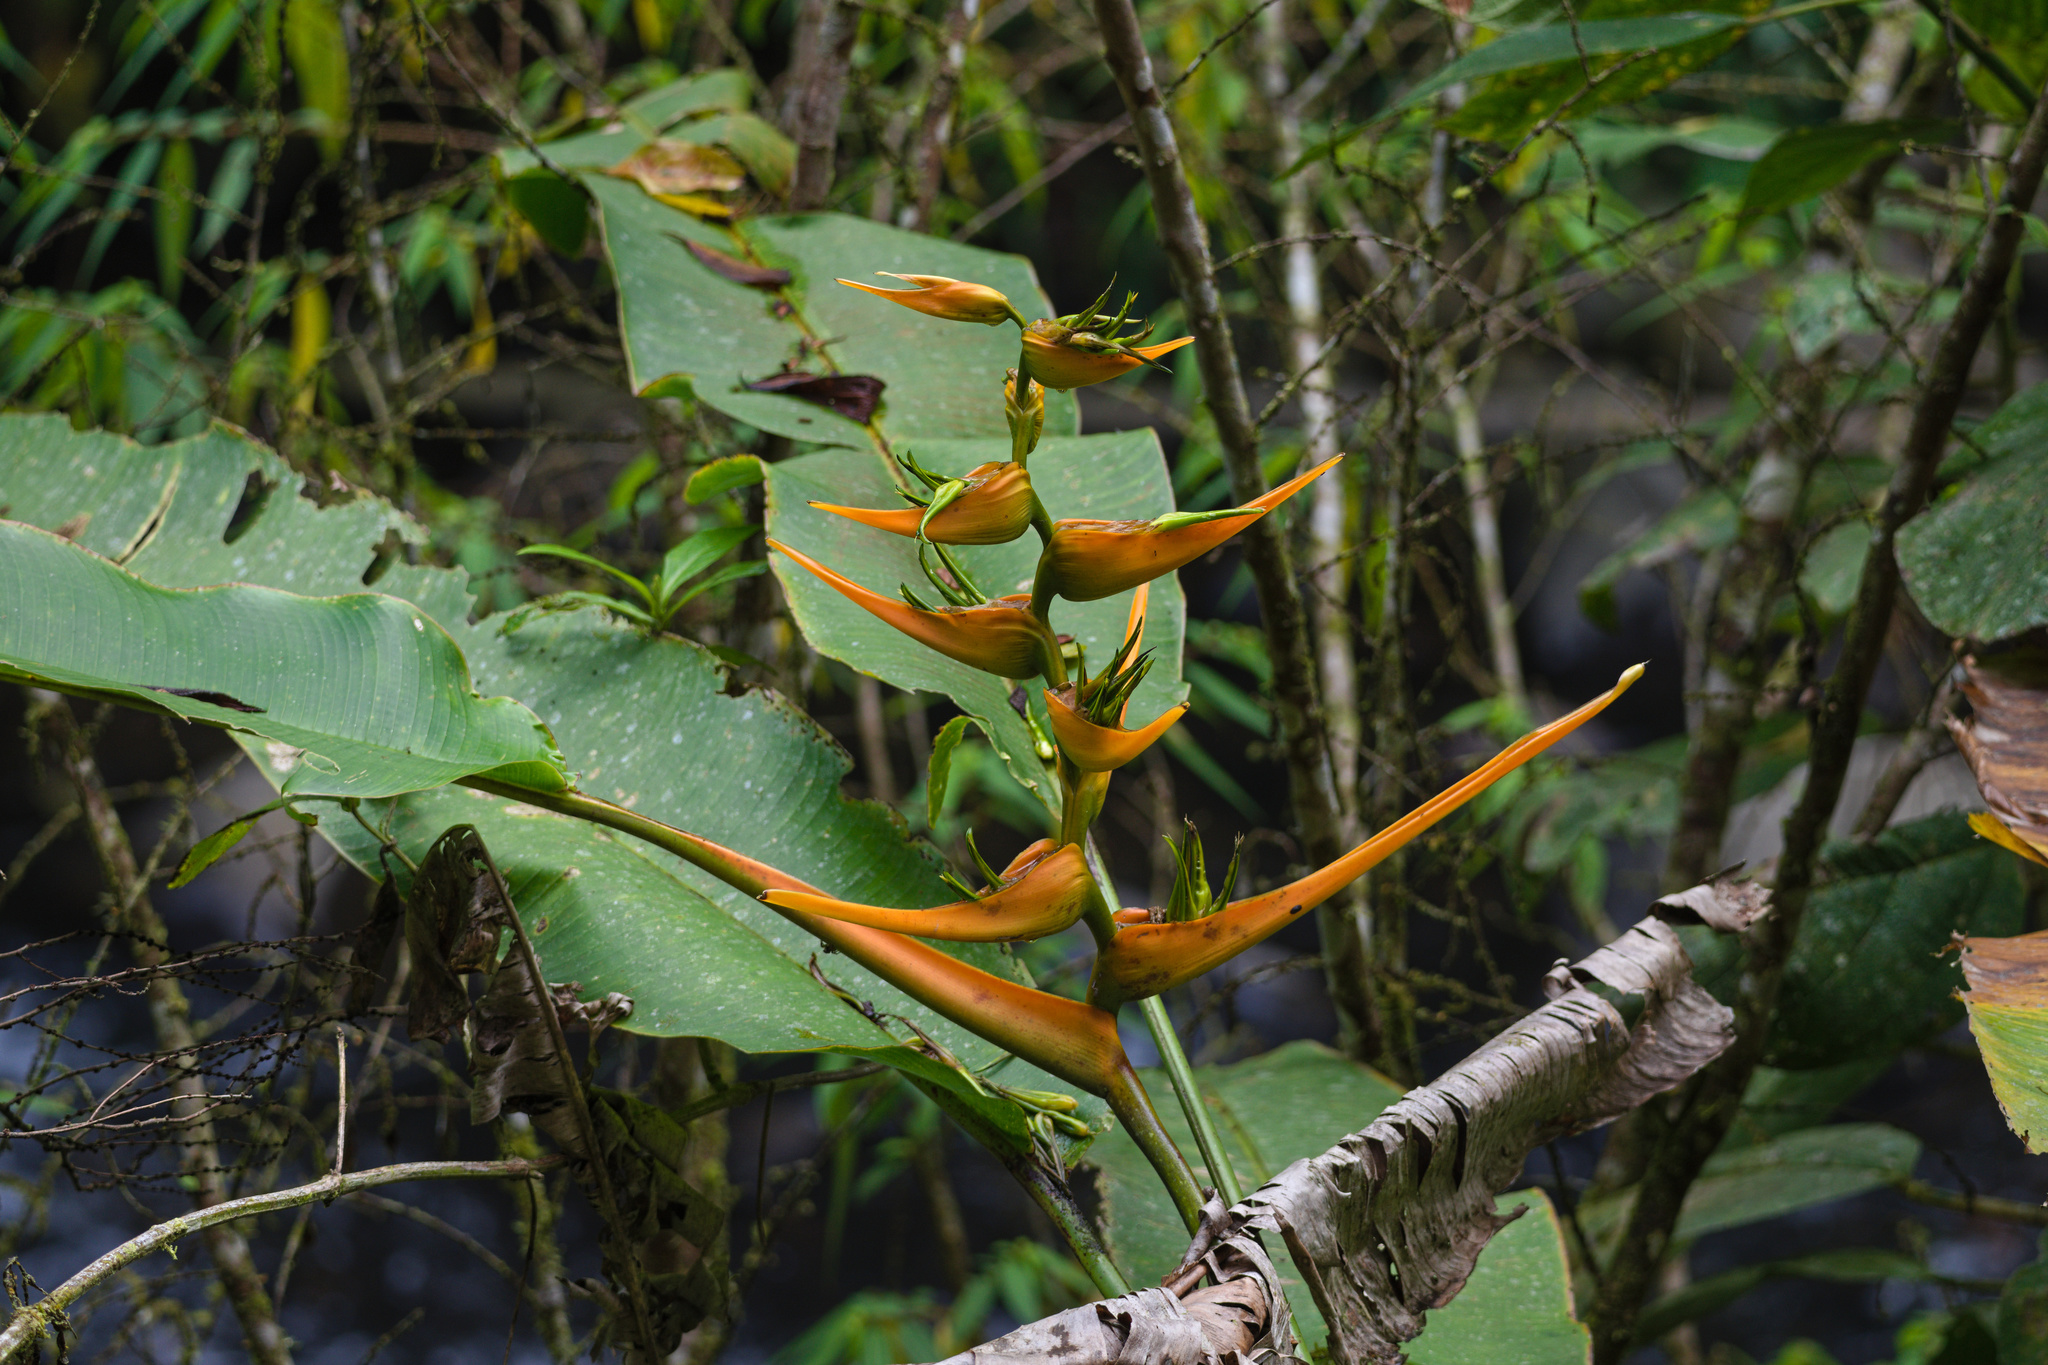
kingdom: Plantae
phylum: Tracheophyta
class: Liliopsida
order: Zingiberales
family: Heliconiaceae
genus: Heliconia
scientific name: Heliconia latispatha
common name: Expanded lobsterclaw
